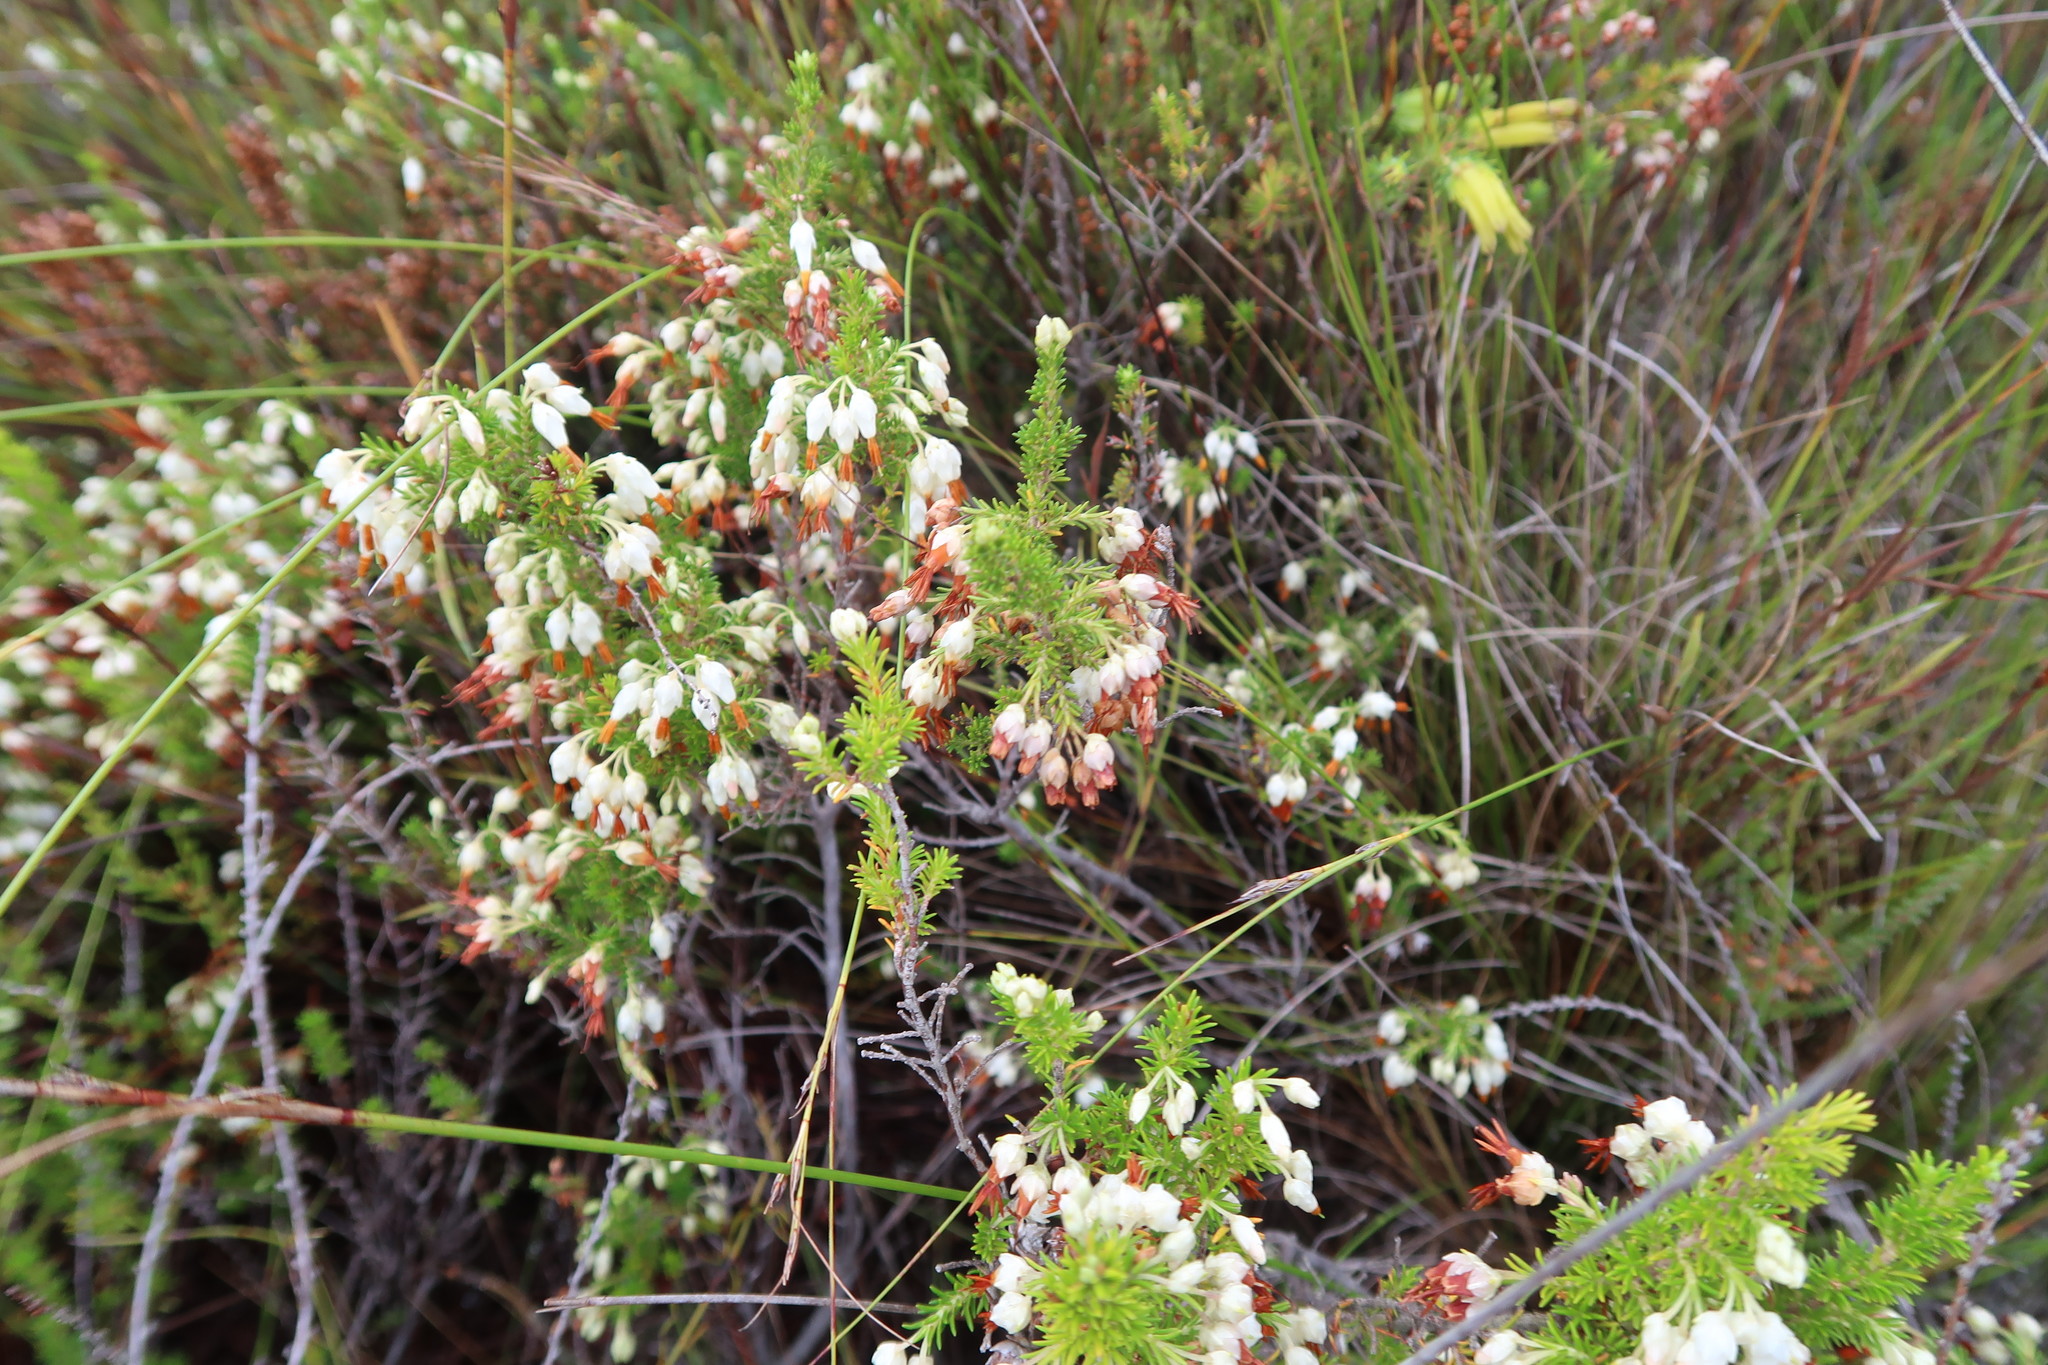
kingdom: Plantae
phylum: Tracheophyta
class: Magnoliopsida
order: Ericales
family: Ericaceae
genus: Erica
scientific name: Erica intermedia
